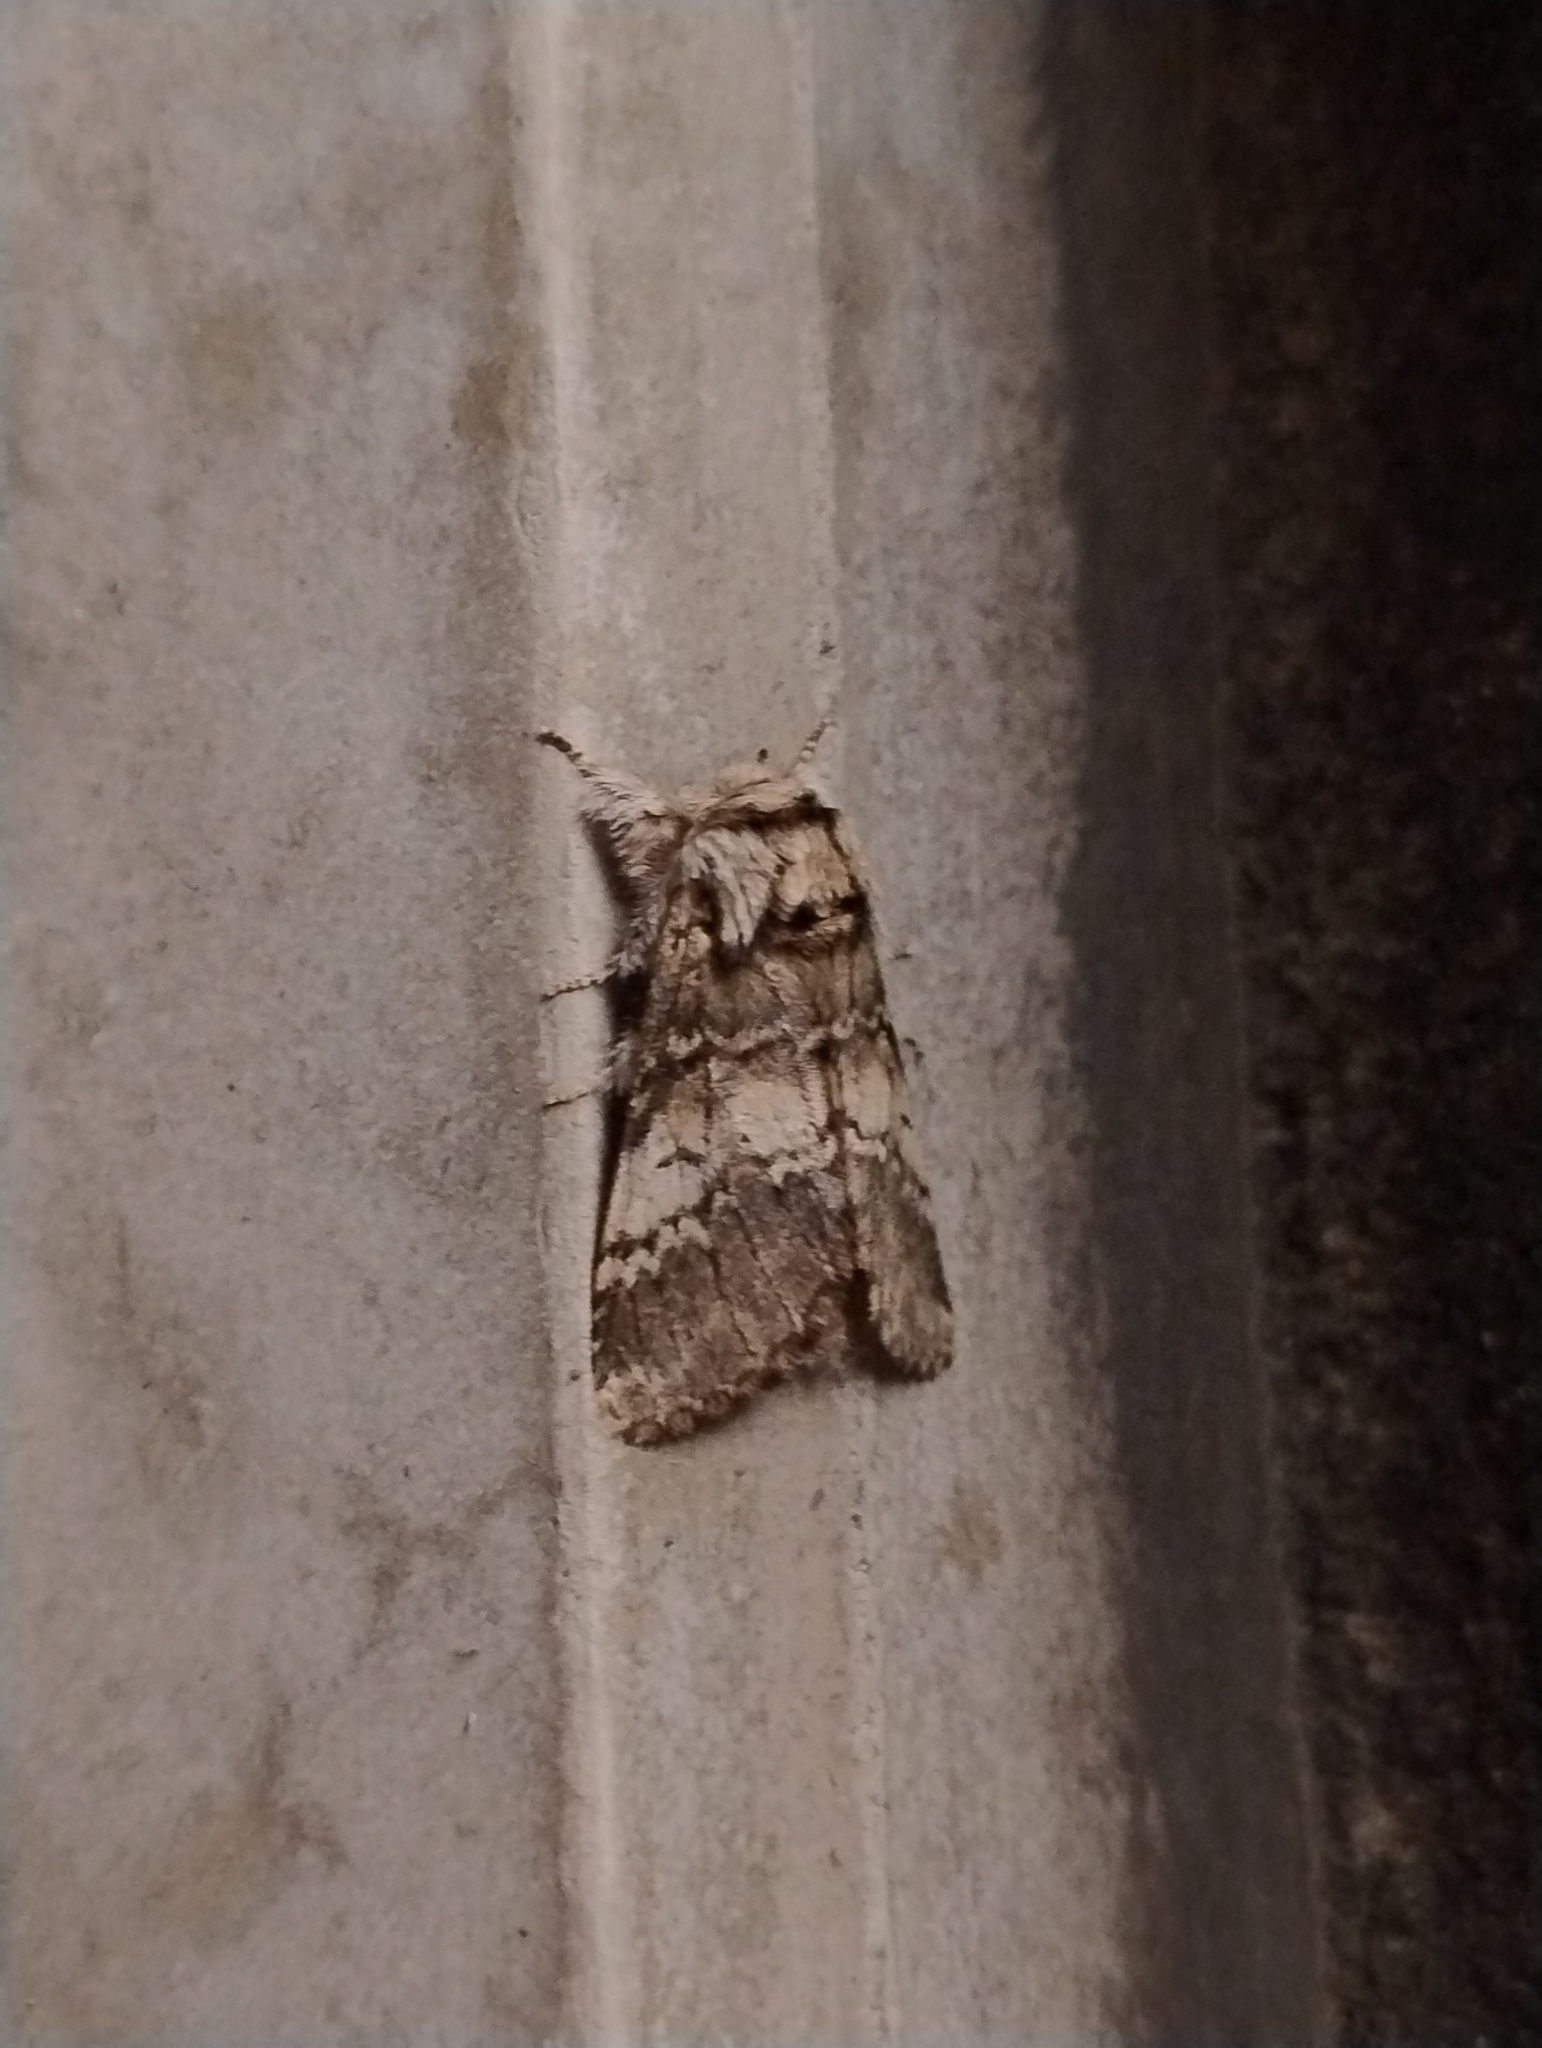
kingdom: Animalia
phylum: Arthropoda
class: Insecta
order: Lepidoptera
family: Notodontidae
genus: Drymonia
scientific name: Drymonia ruficornis
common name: Lunar marbled brown
